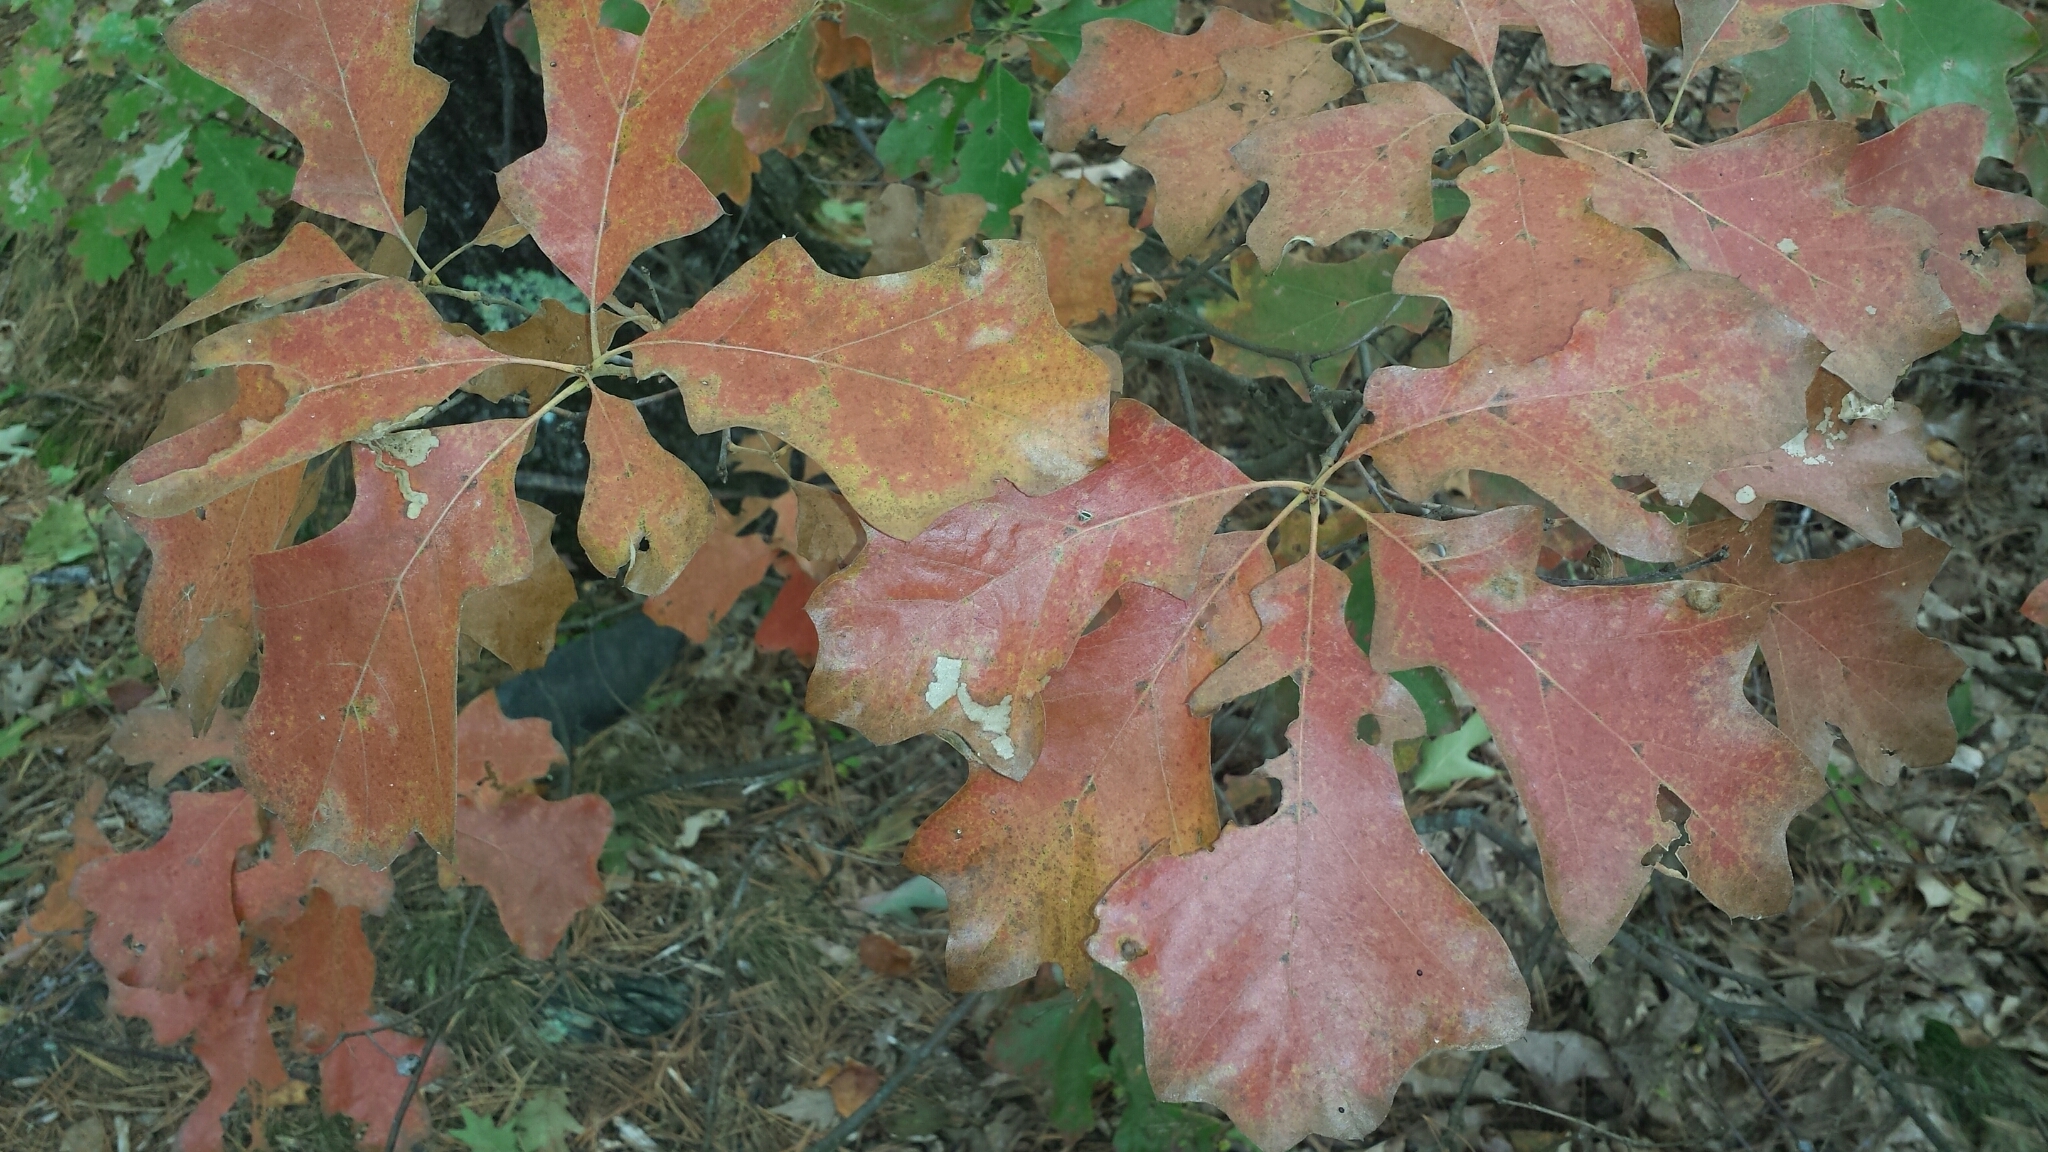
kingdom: Plantae
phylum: Tracheophyta
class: Magnoliopsida
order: Fagales
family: Fagaceae
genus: Quercus
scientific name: Quercus ilicifolia
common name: Bear oak
